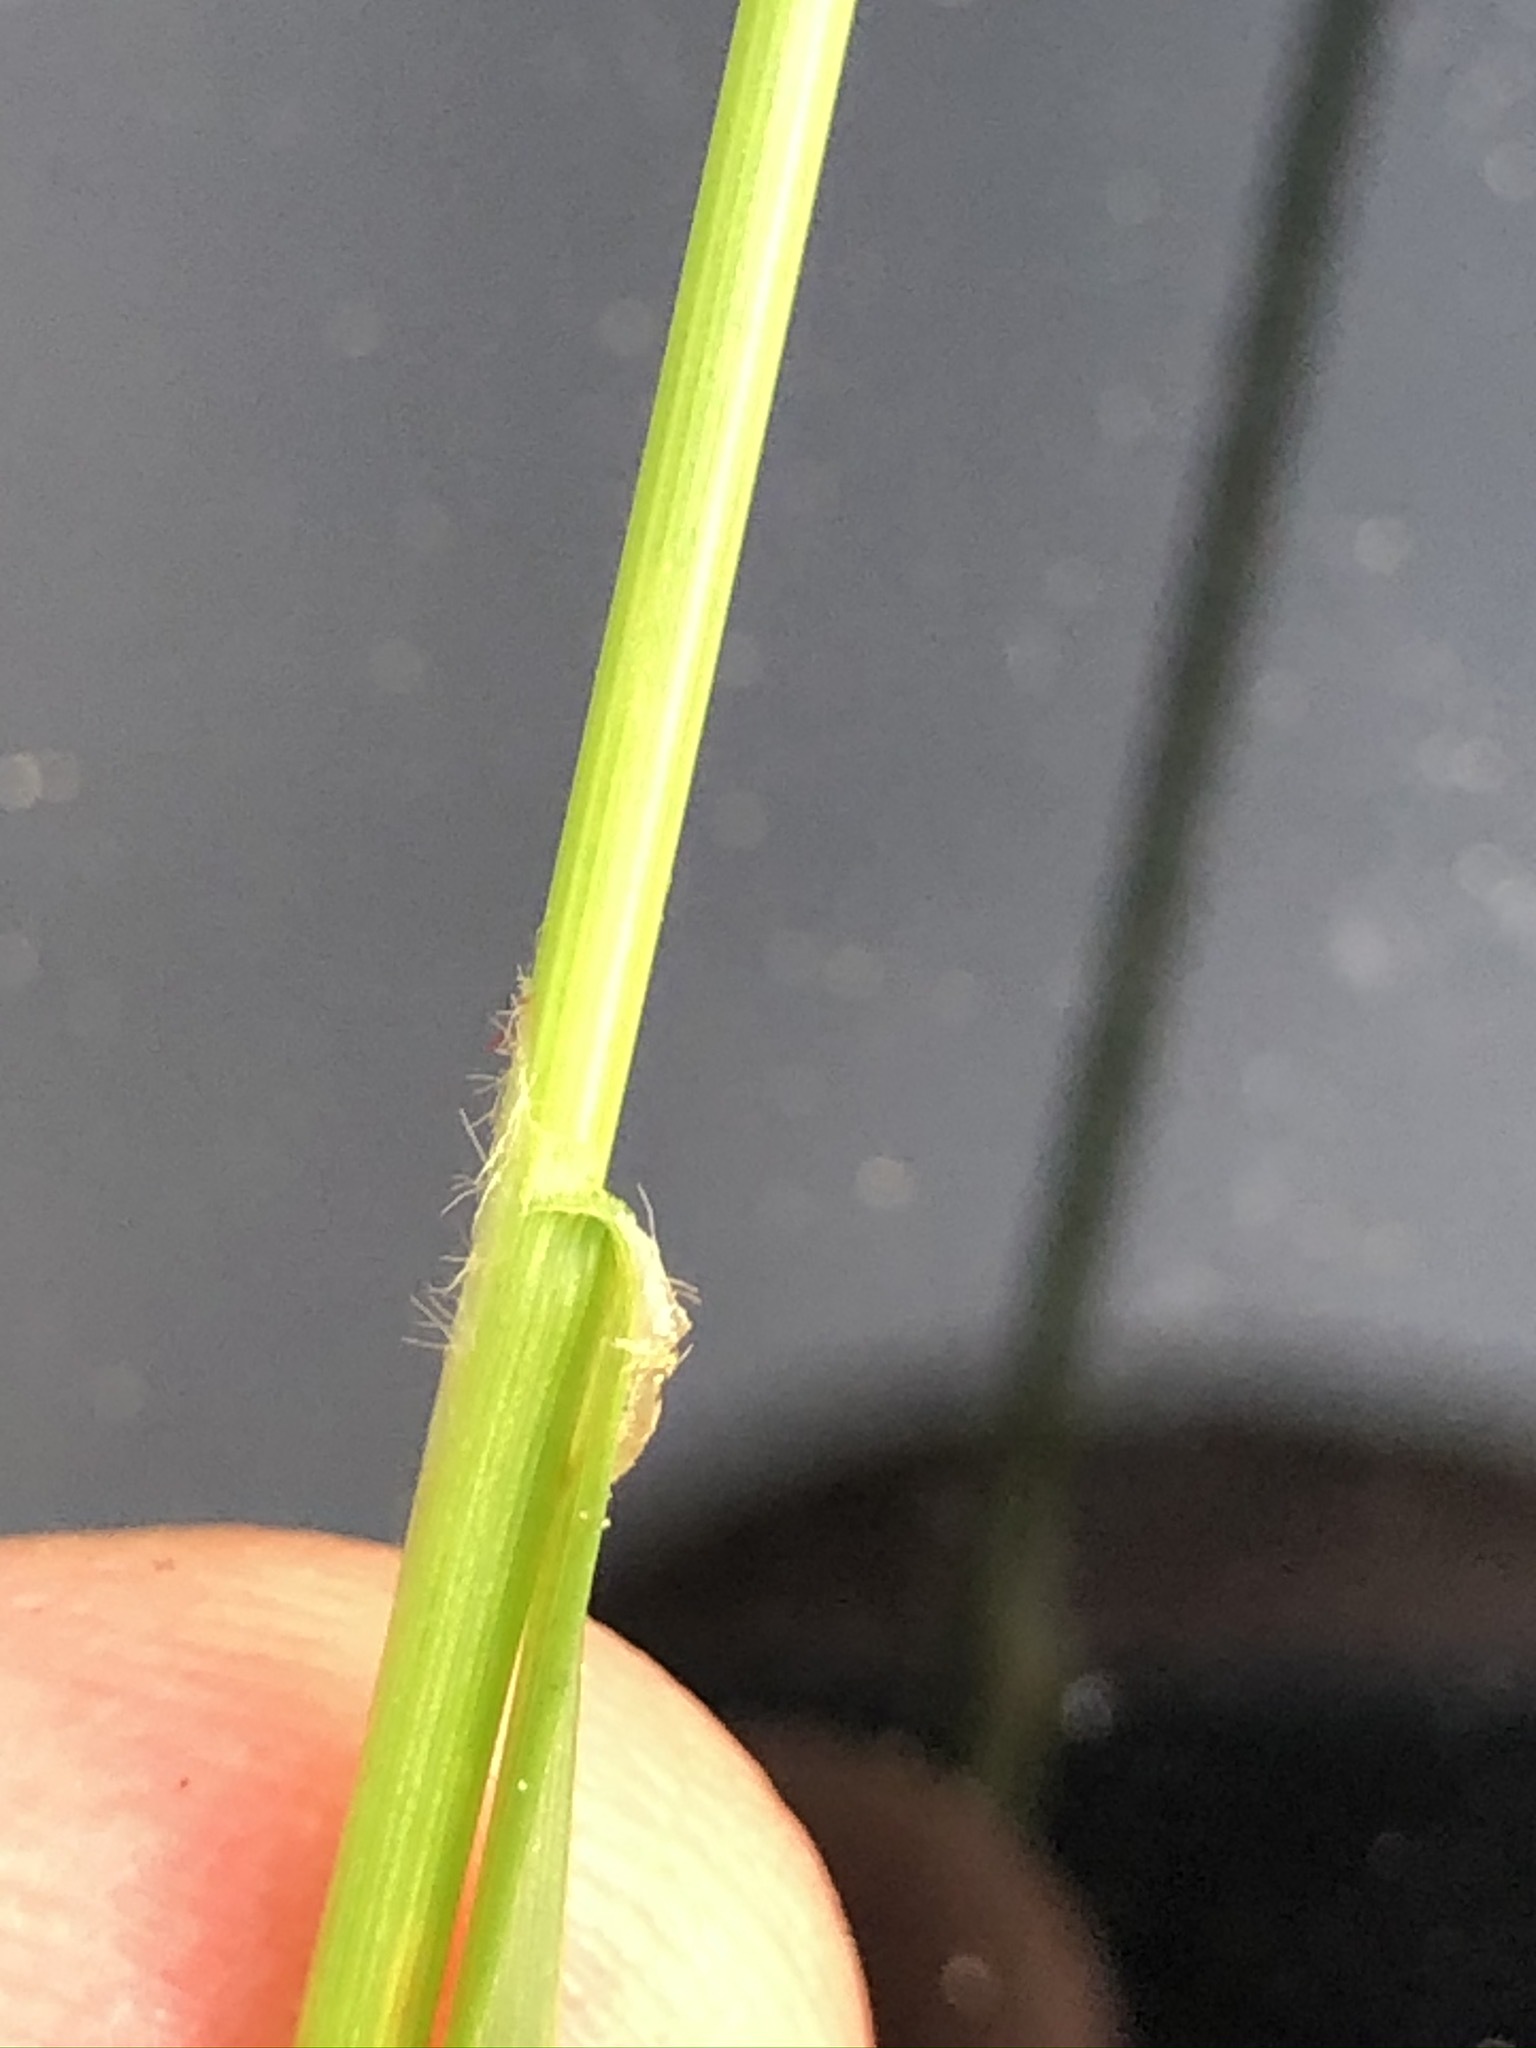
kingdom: Plantae
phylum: Tracheophyta
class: Liliopsida
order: Poales
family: Cyperaceae
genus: Carex
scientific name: Carex hirta
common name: Hairy sedge
